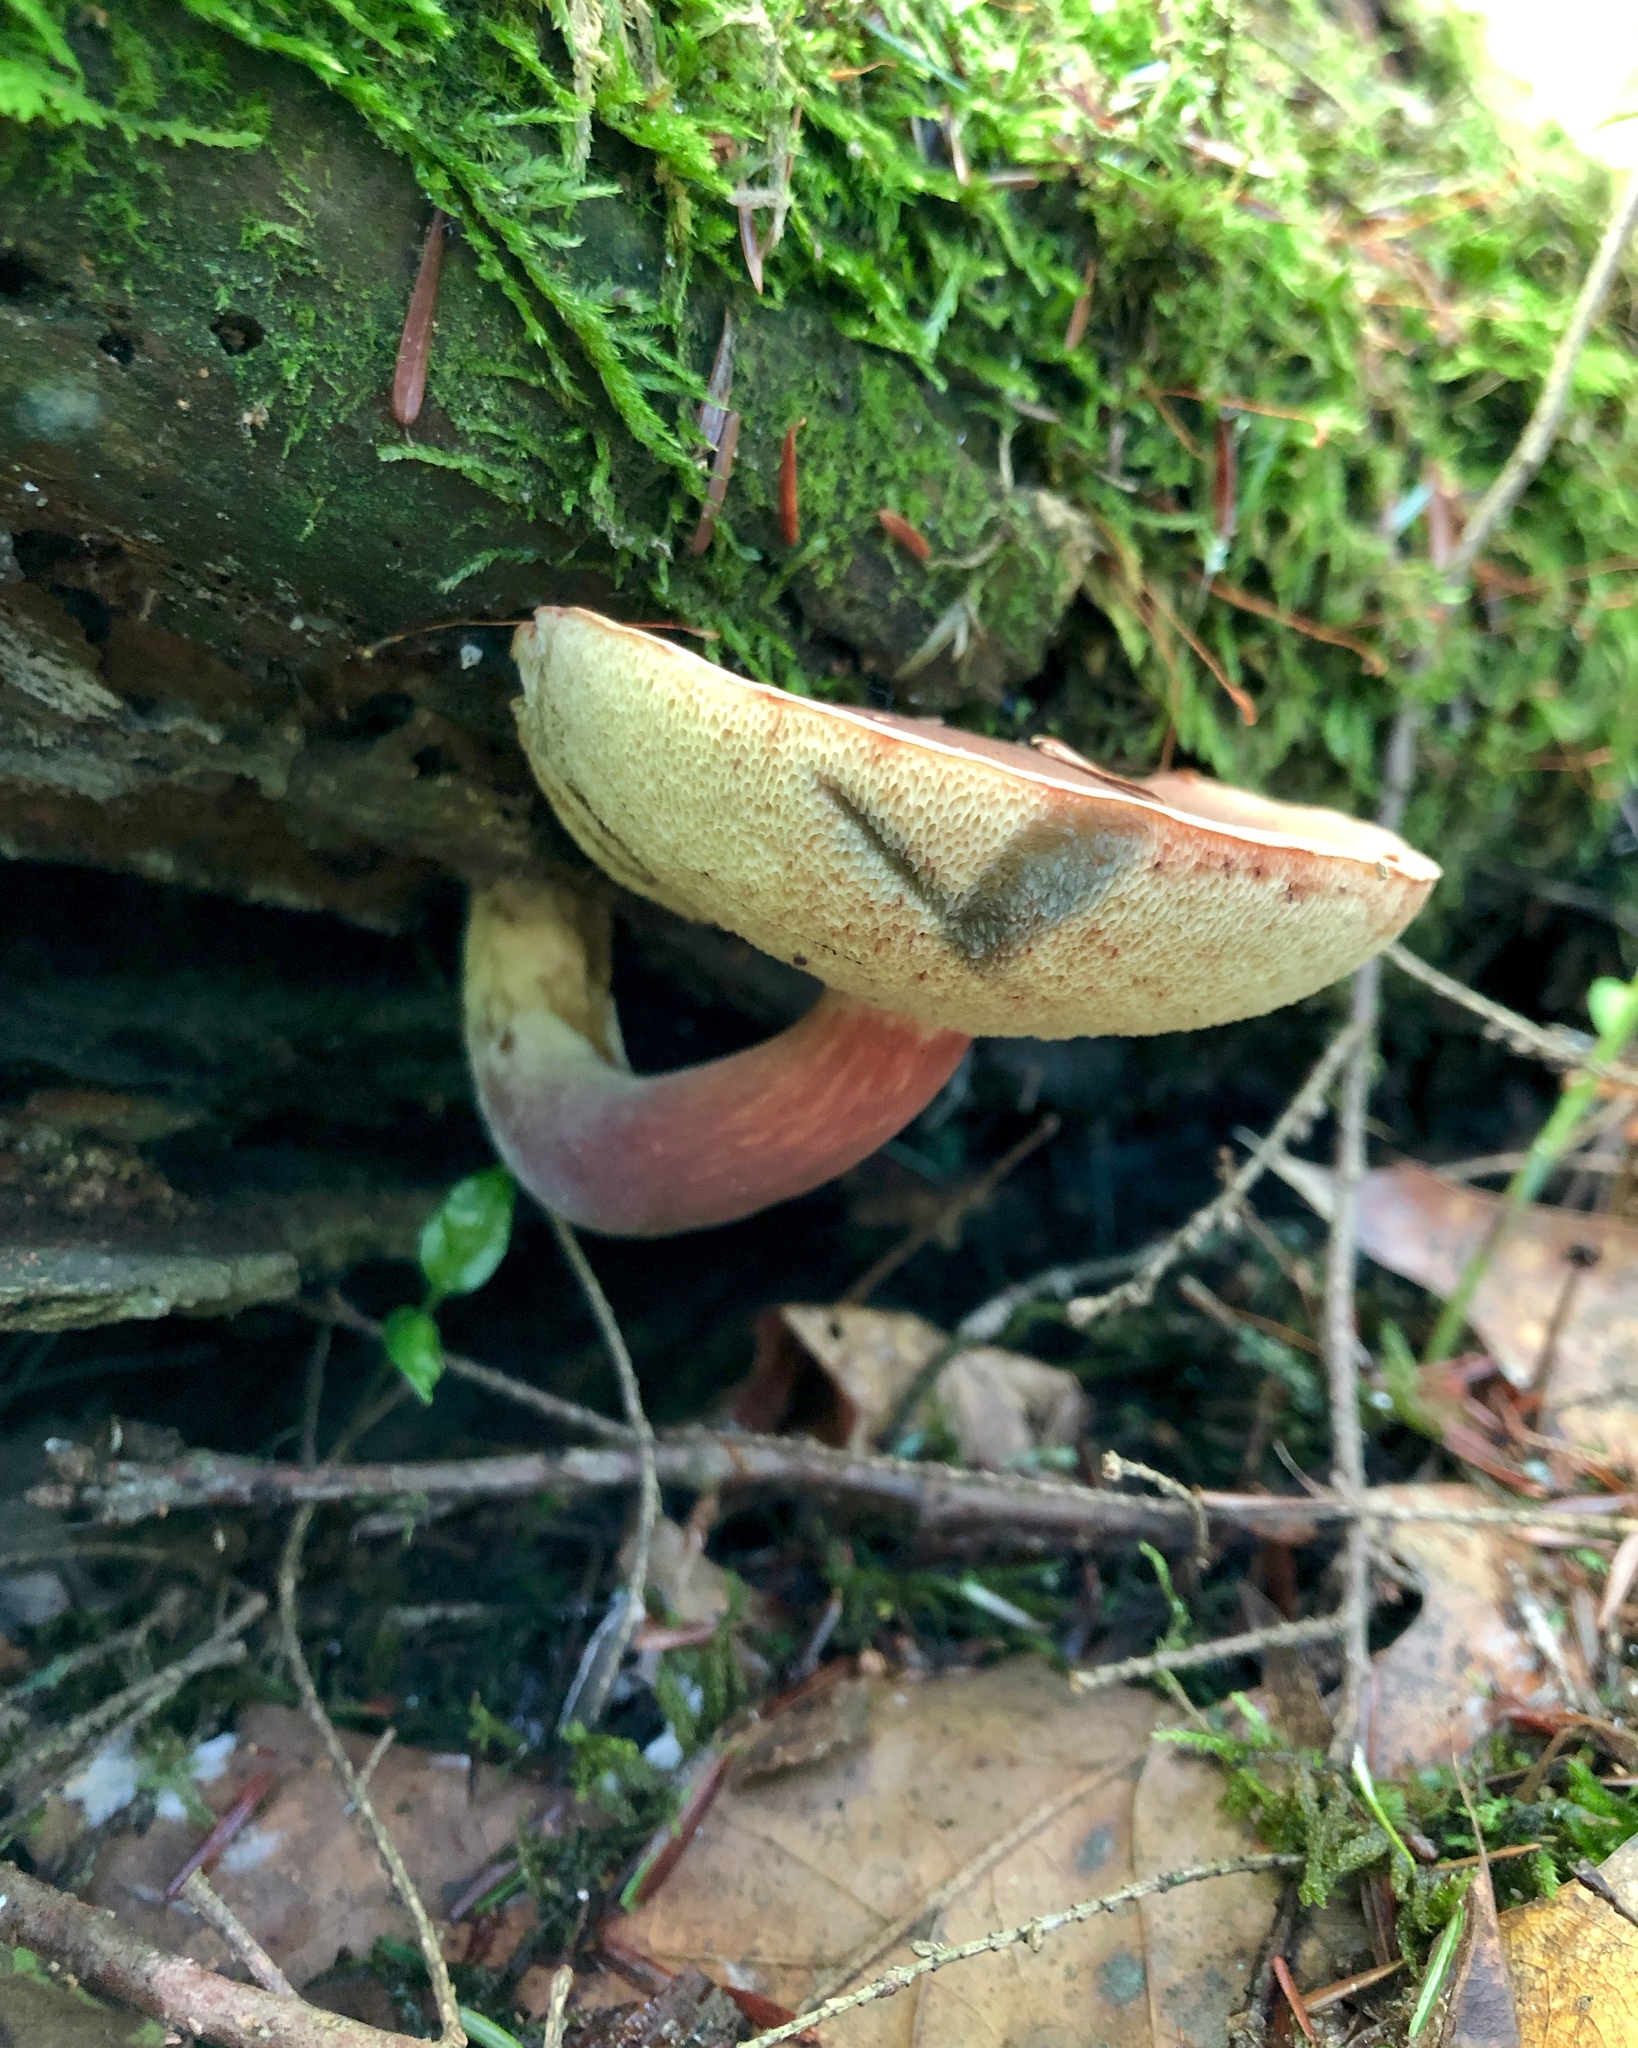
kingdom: Fungi
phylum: Basidiomycota
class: Agaricomycetes
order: Boletales
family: Boletaceae
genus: Xerocomellus
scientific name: Xerocomellus chrysenteron
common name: Red-cracking bolete
